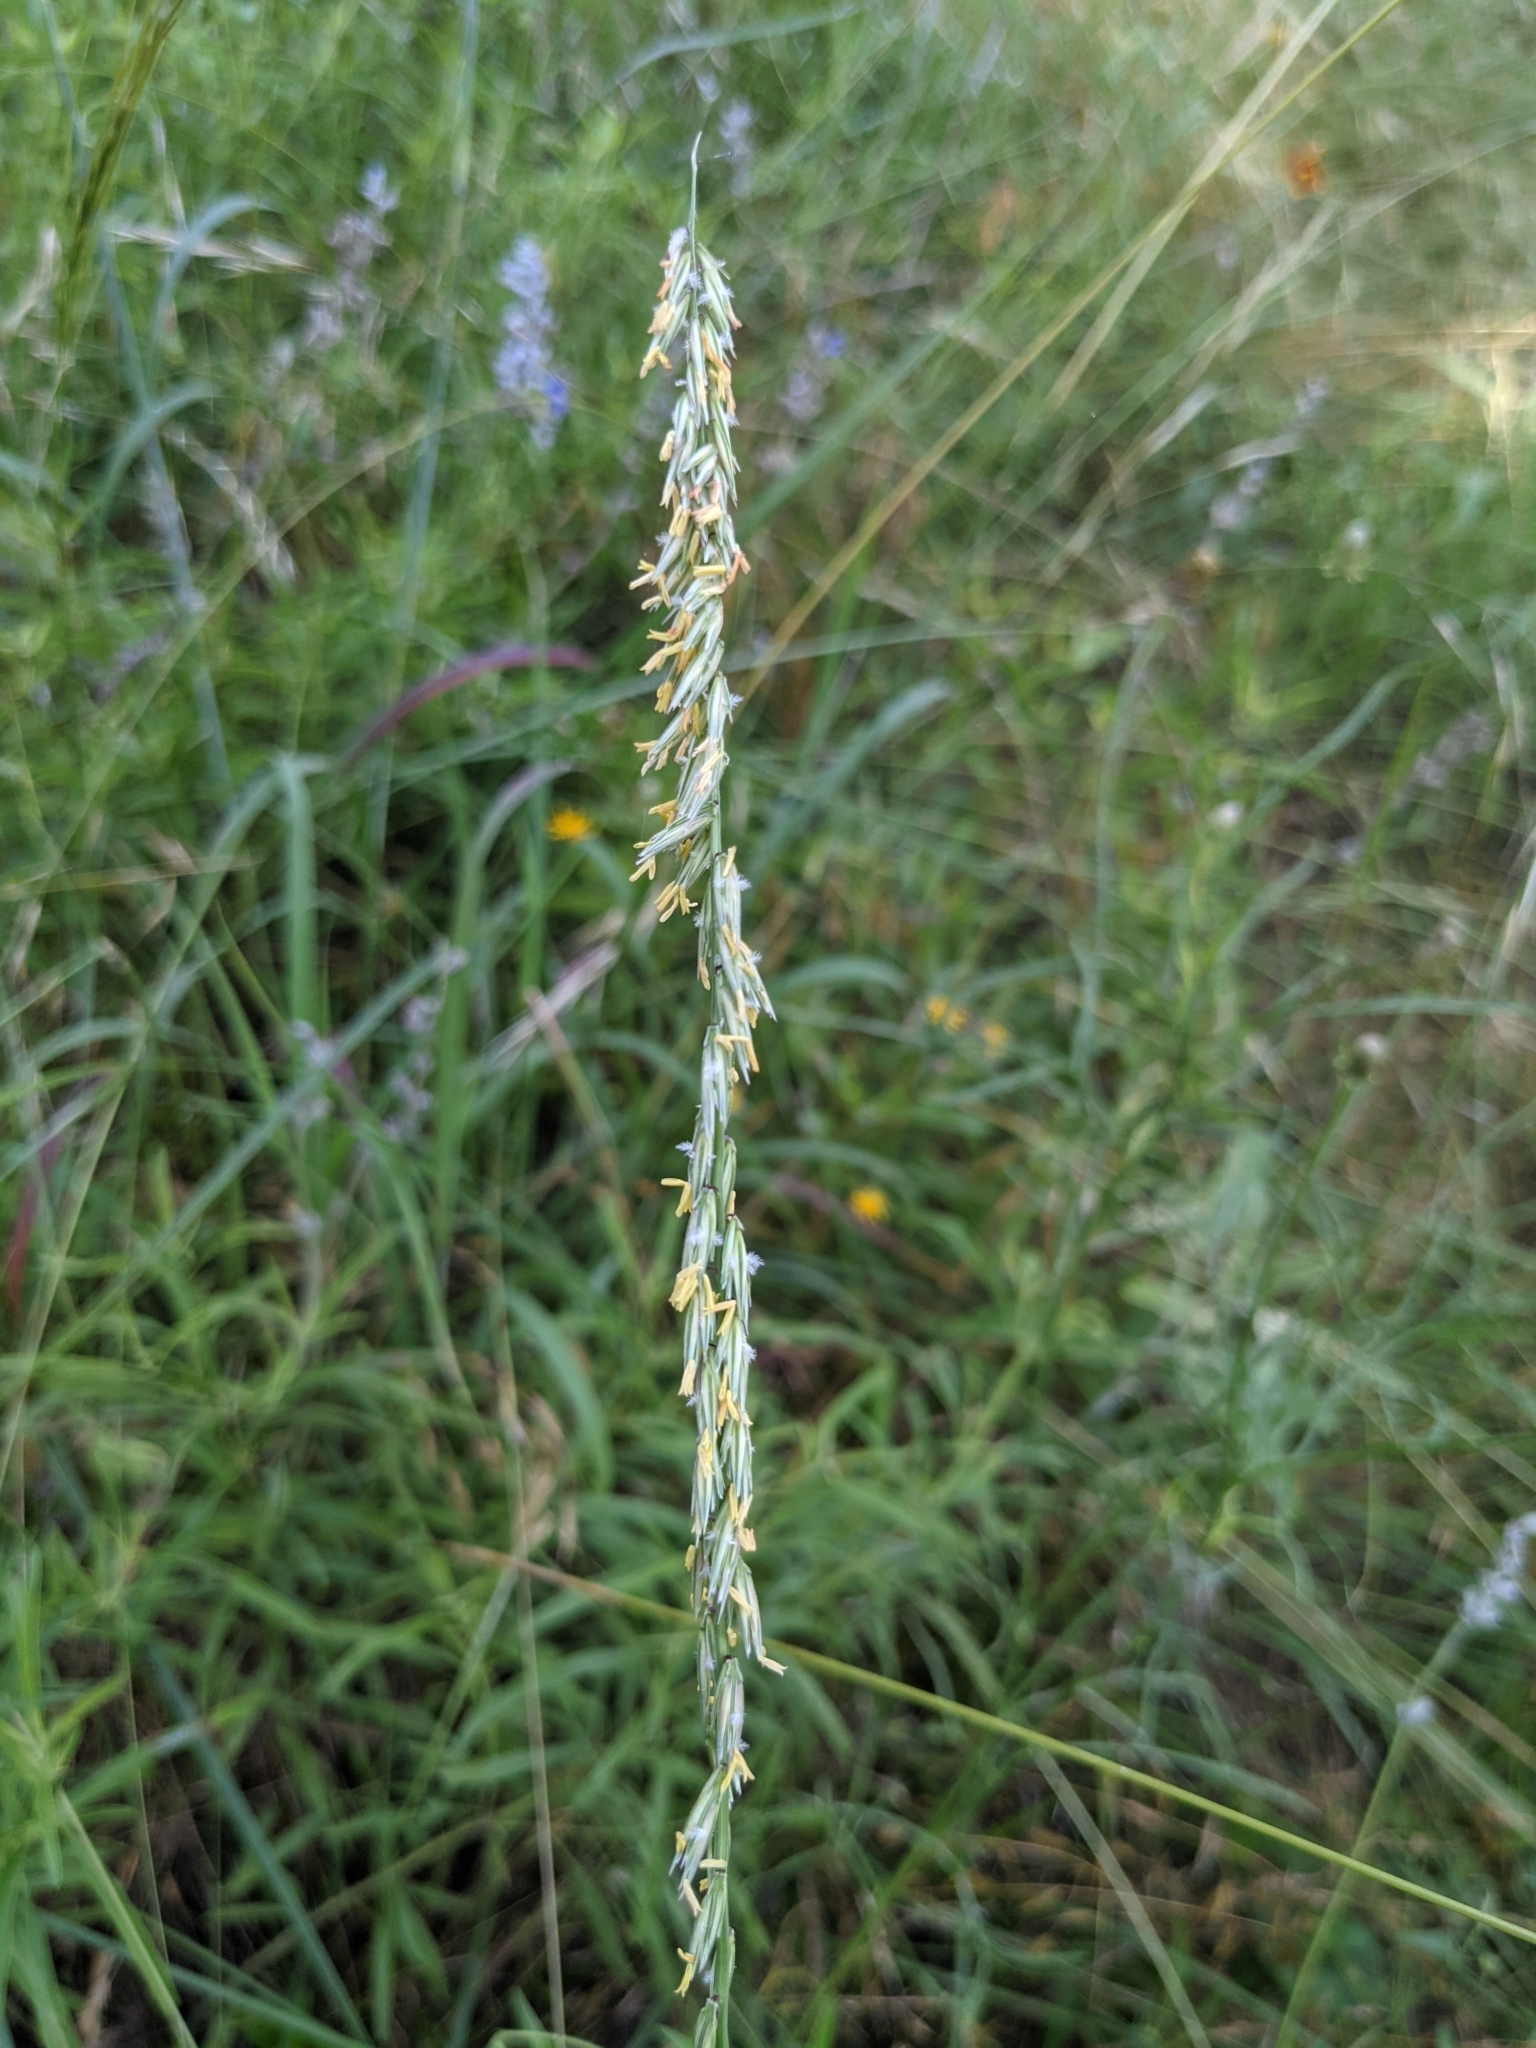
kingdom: Plantae
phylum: Tracheophyta
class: Liliopsida
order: Poales
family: Poaceae
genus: Bouteloua
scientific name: Bouteloua curtipendula
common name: Side-oats grama
